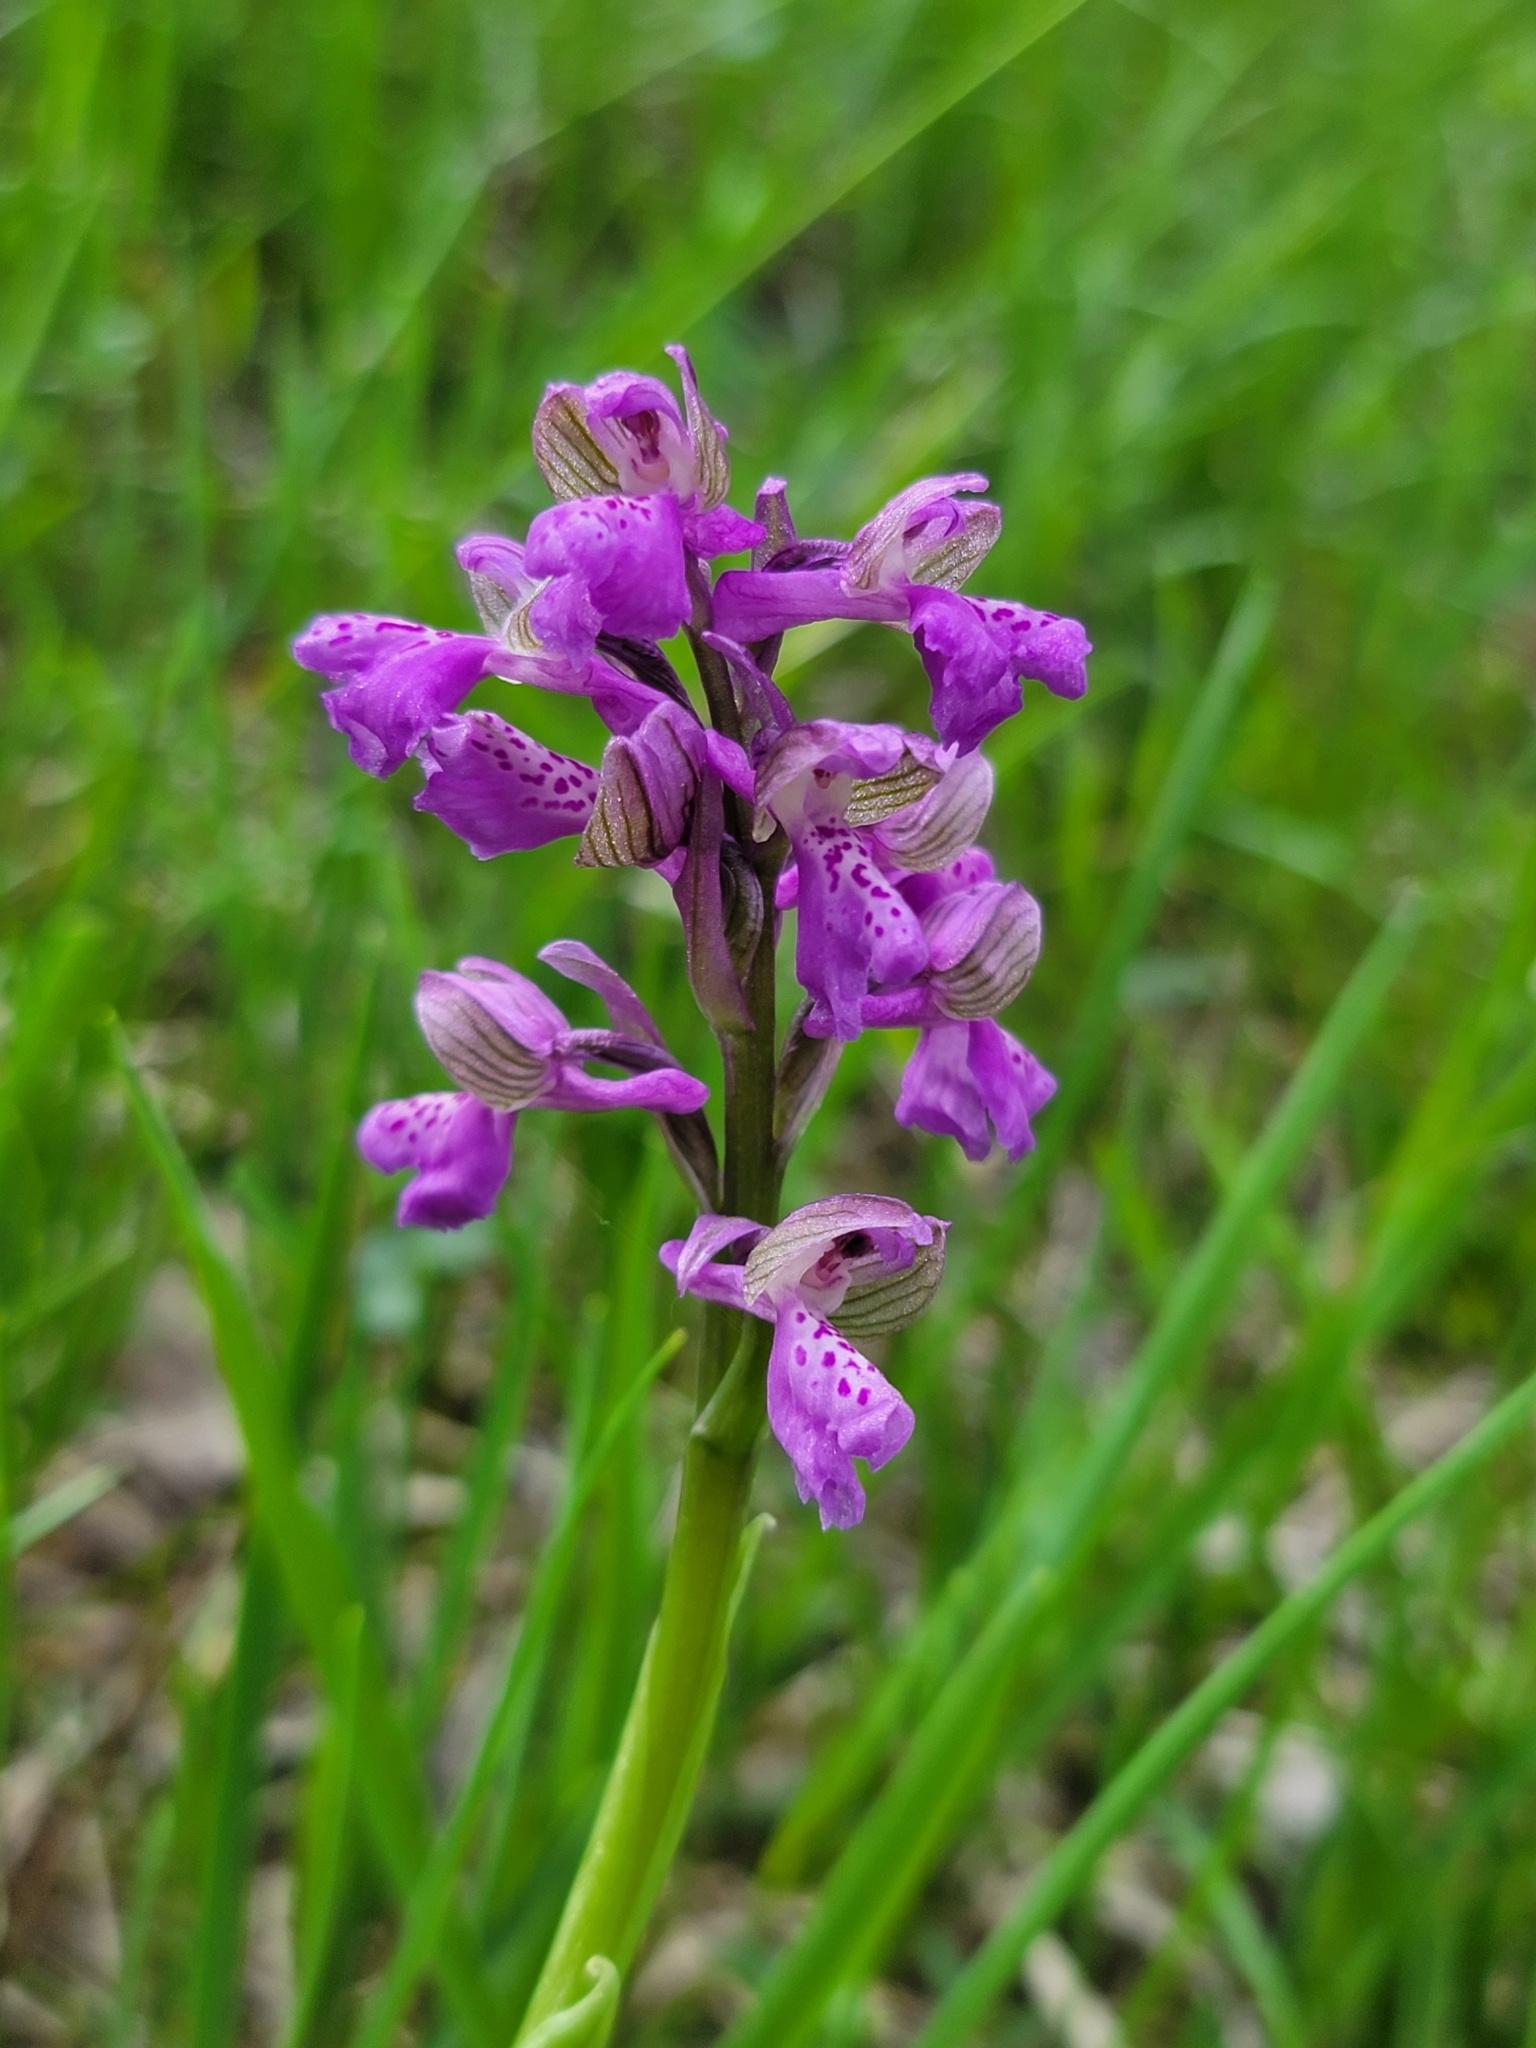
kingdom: Plantae
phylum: Tracheophyta
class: Liliopsida
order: Asparagales
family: Orchidaceae
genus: Anacamptis
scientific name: Anacamptis morio
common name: Green-winged orchid
